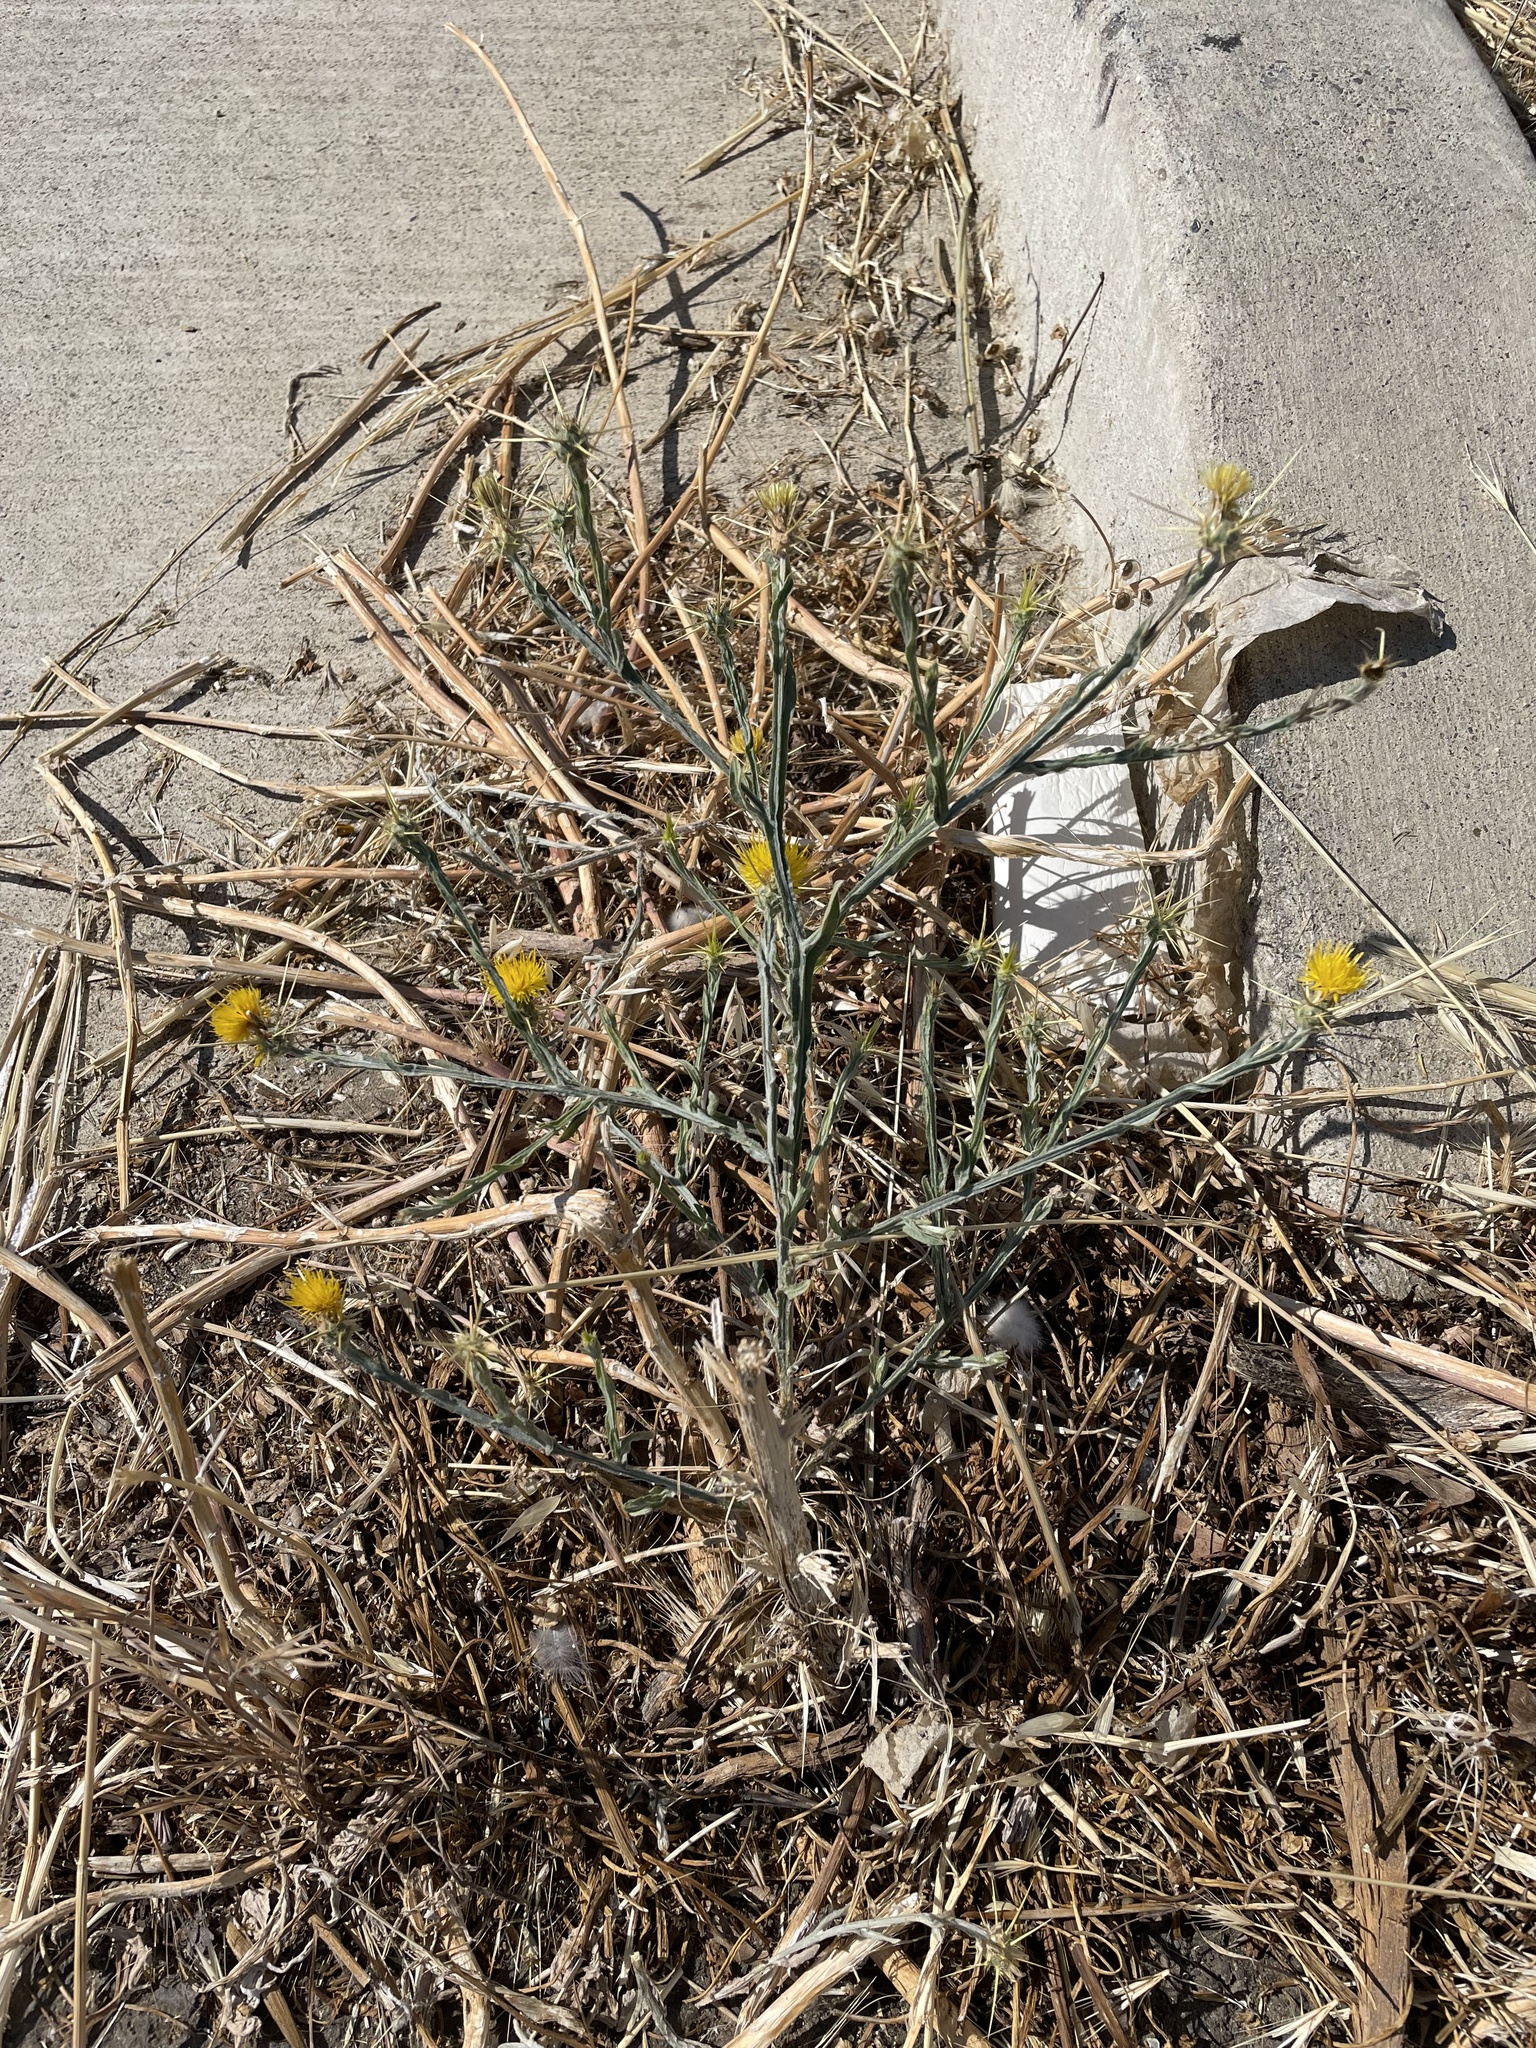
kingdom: Plantae
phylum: Tracheophyta
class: Magnoliopsida
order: Asterales
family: Asteraceae
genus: Centaurea
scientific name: Centaurea solstitialis
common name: Yellow star-thistle
